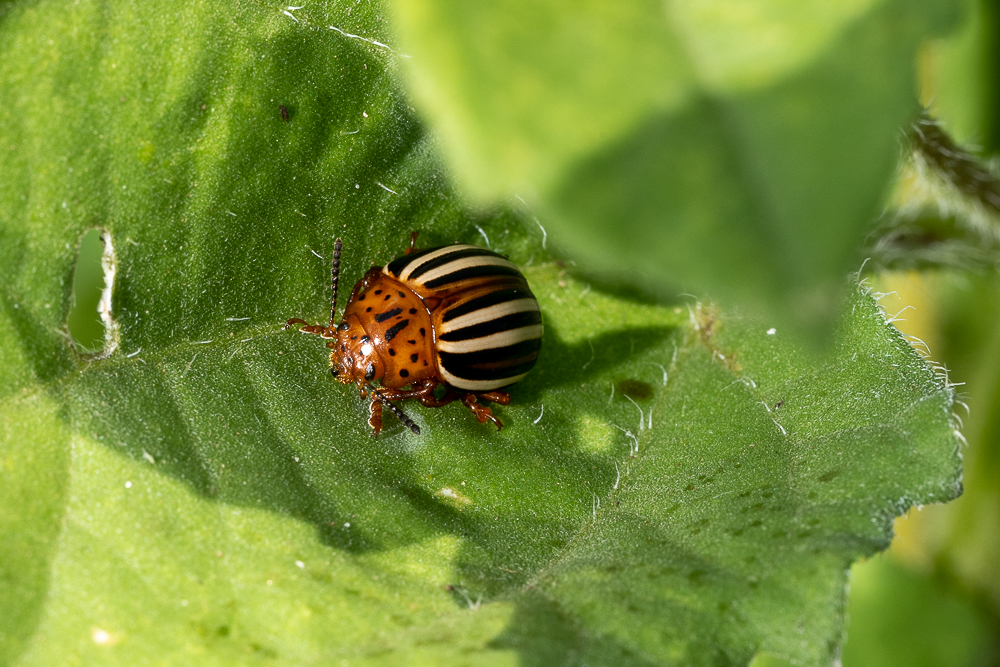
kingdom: Animalia
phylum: Arthropoda
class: Insecta
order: Coleoptera
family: Chrysomelidae
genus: Leptinotarsa
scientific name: Leptinotarsa juncta
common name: False potato beetle
